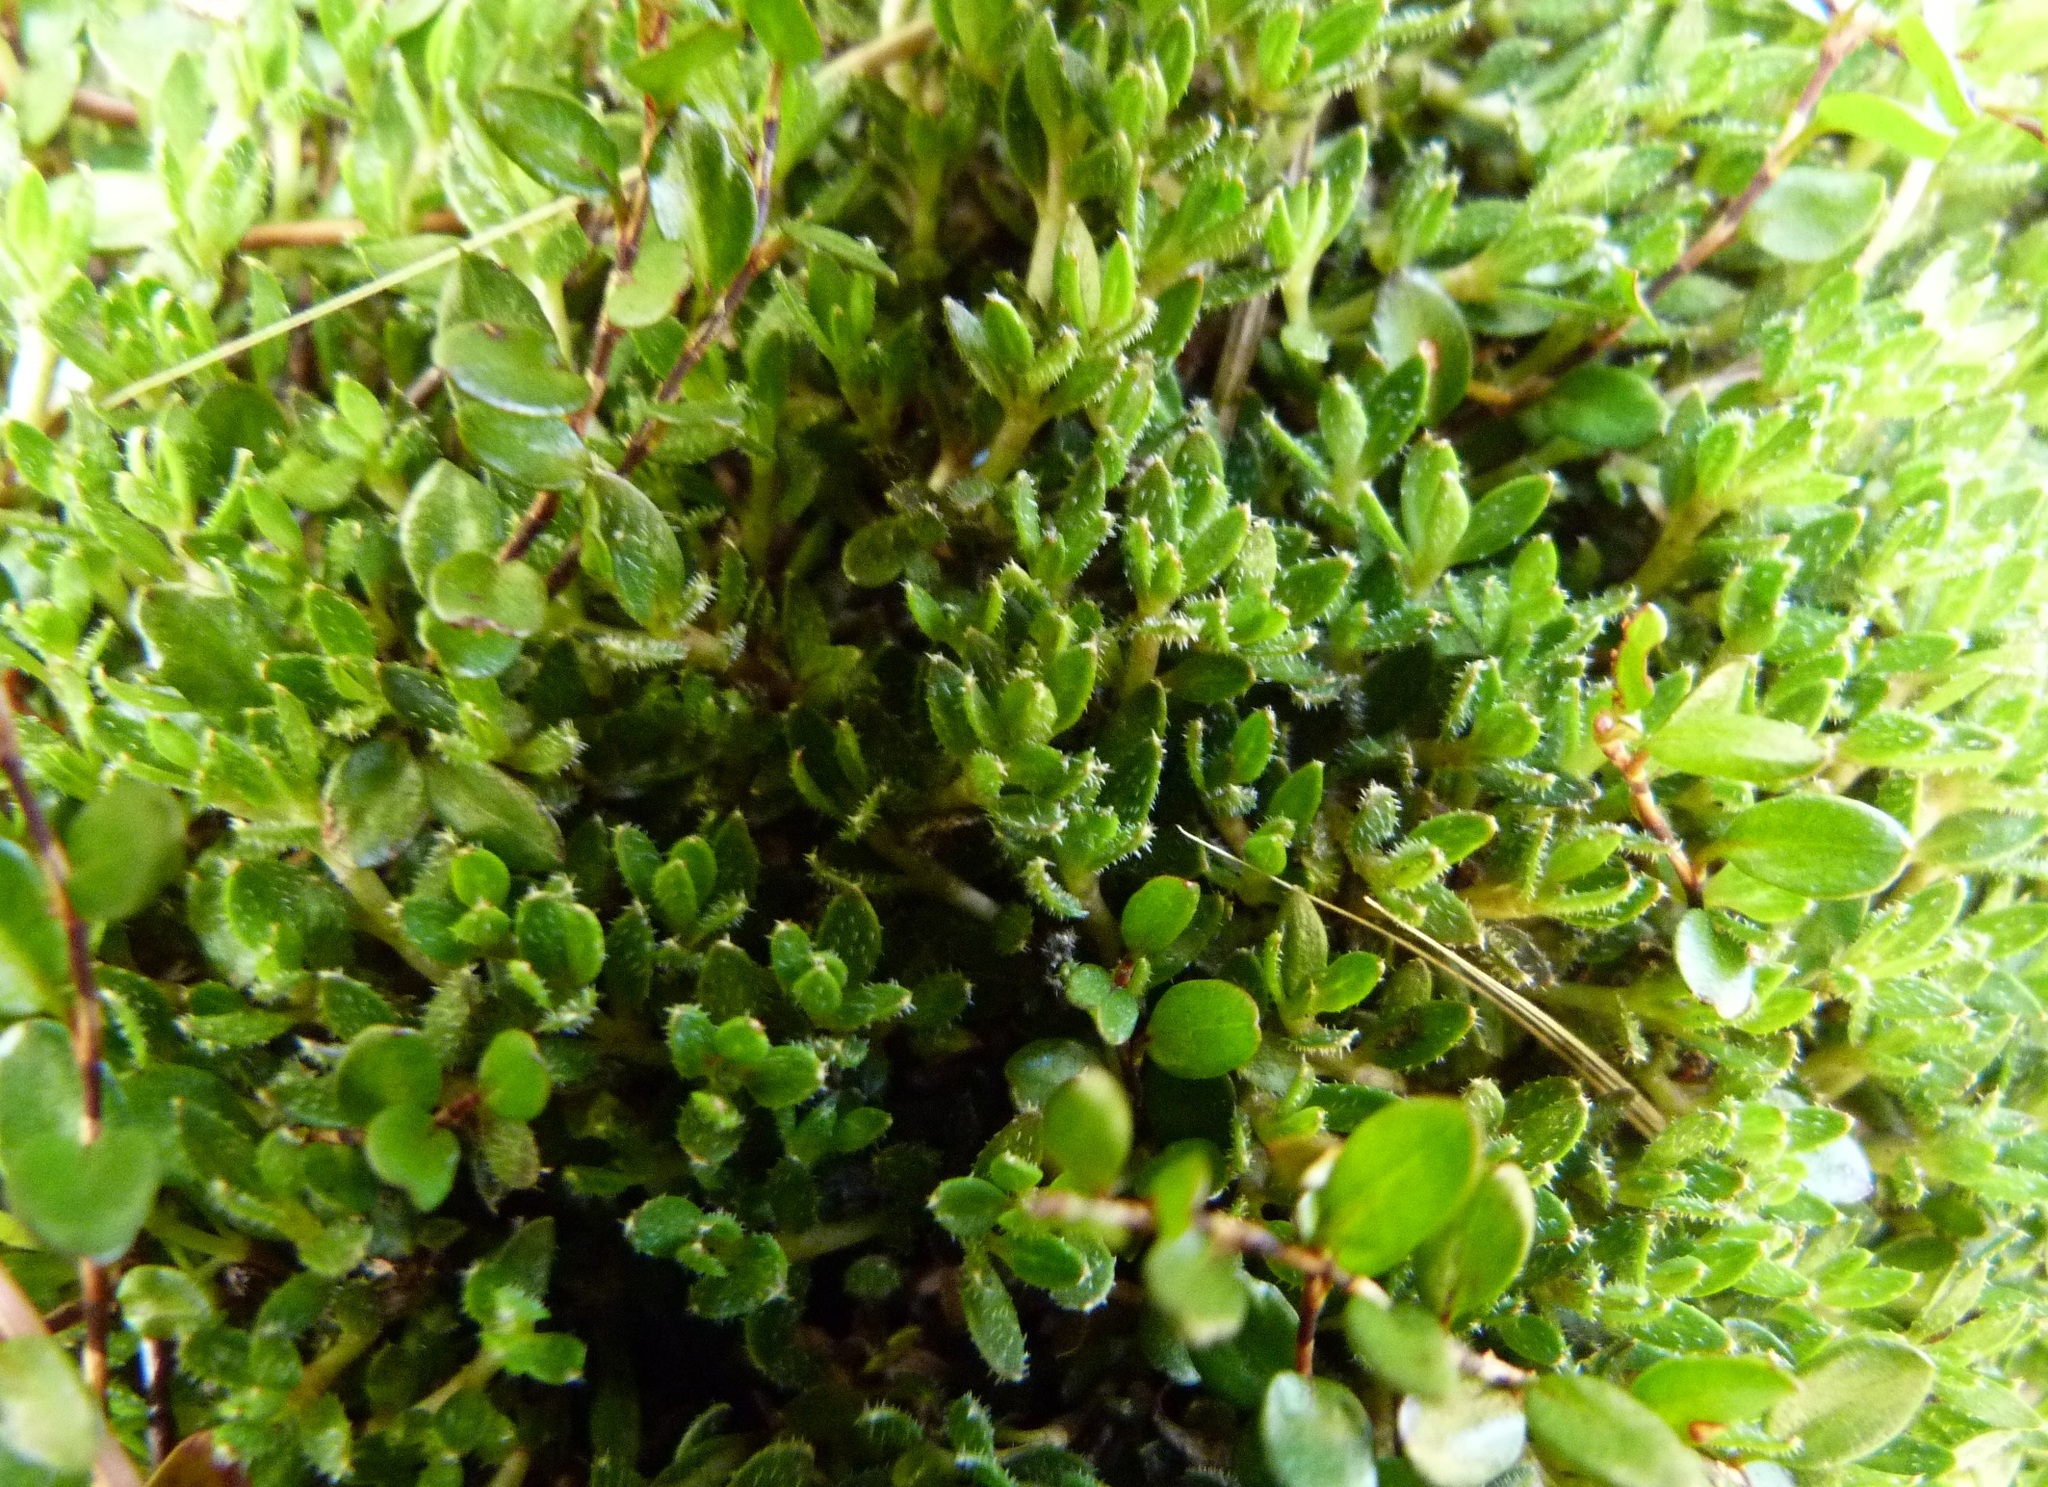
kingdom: Plantae
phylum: Tracheophyta
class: Magnoliopsida
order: Gentianales
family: Rubiaceae
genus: Coprosma
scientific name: Coprosma atropurpurea
